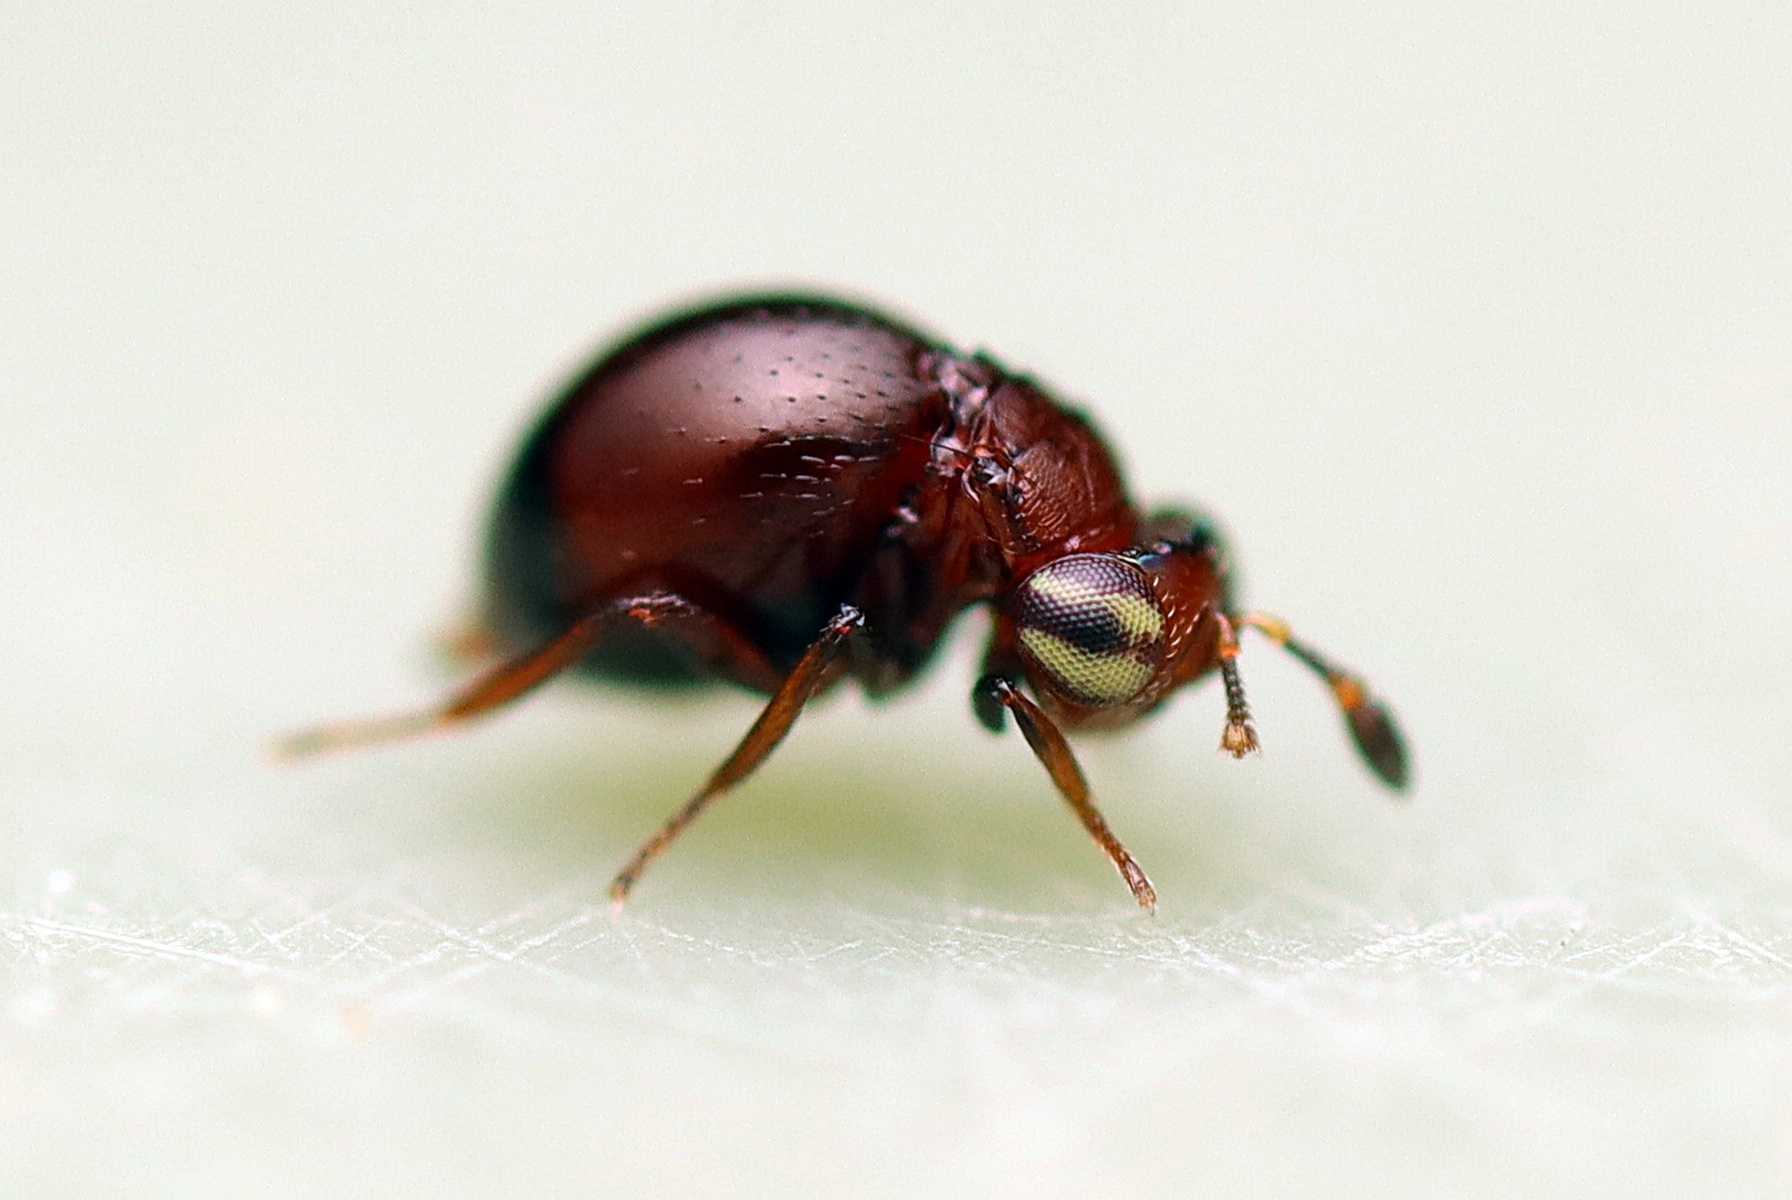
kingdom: Animalia
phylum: Arthropoda
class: Insecta
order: Hymenoptera
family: Pteromalidae
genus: Pseudoceraphron
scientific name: Pseudoceraphron
